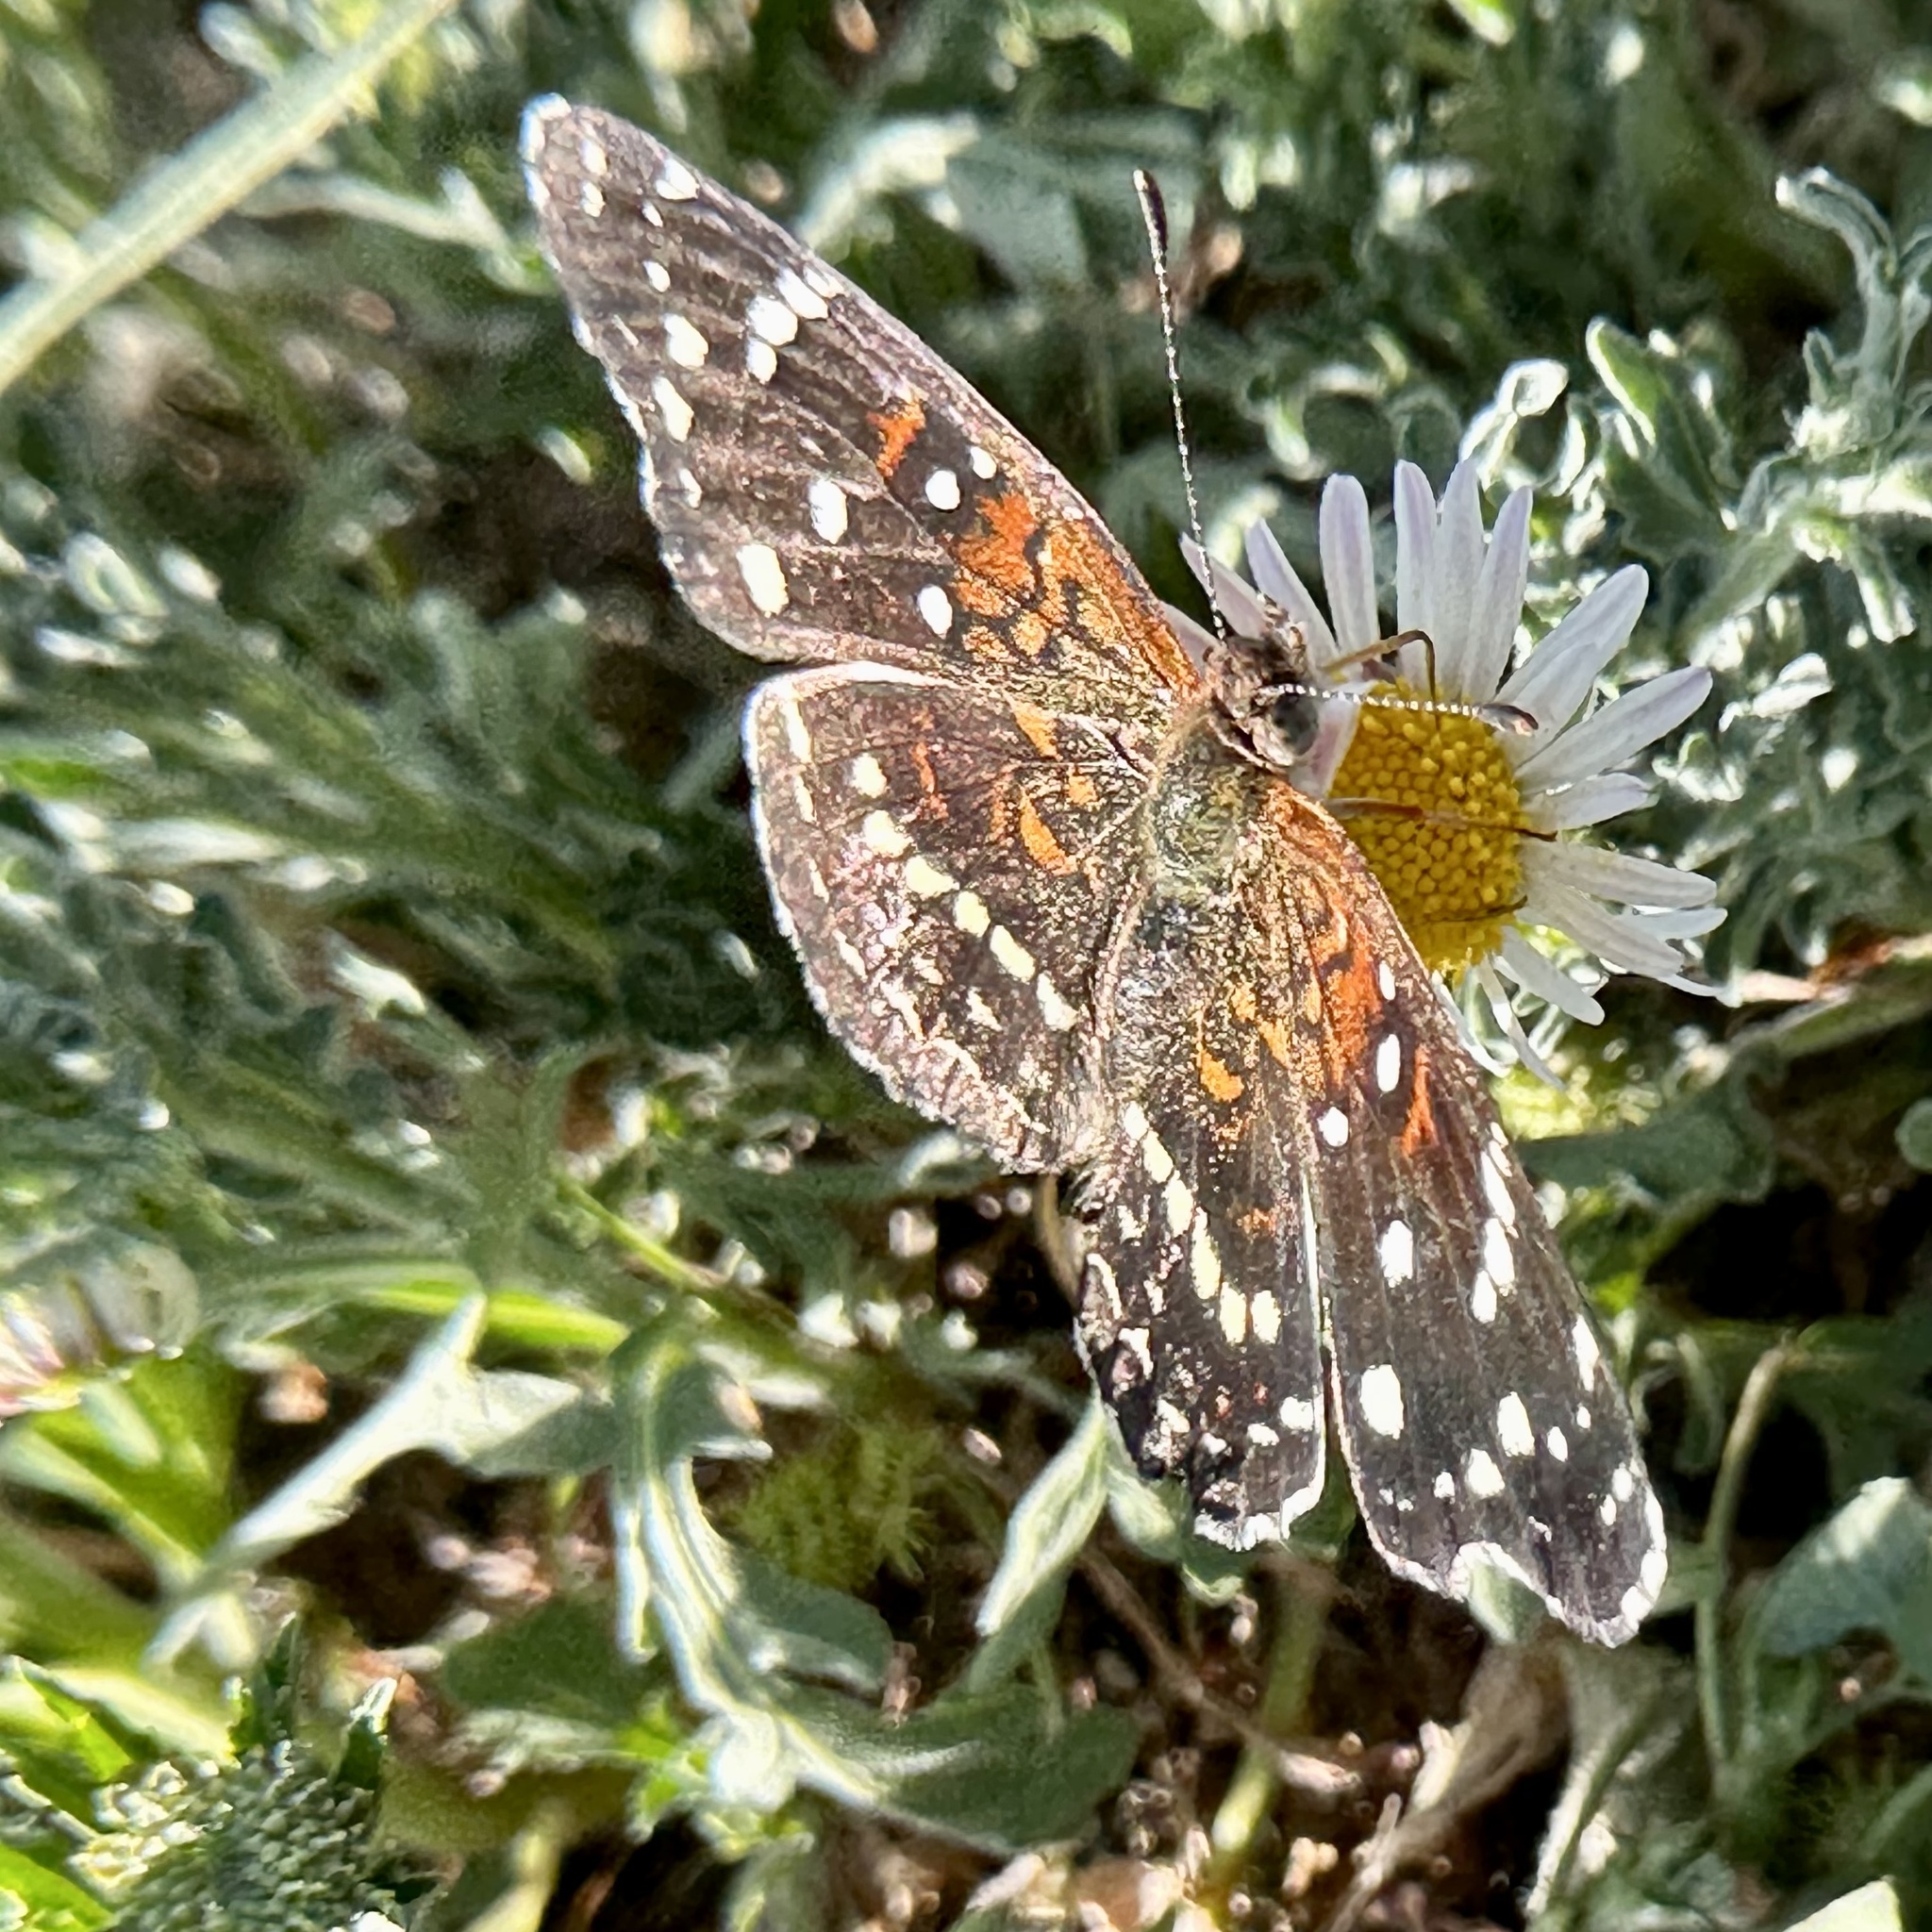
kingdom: Animalia
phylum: Arthropoda
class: Insecta
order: Lepidoptera
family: Nymphalidae
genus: Anthanassa
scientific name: Anthanassa texana
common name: Texan crescent
